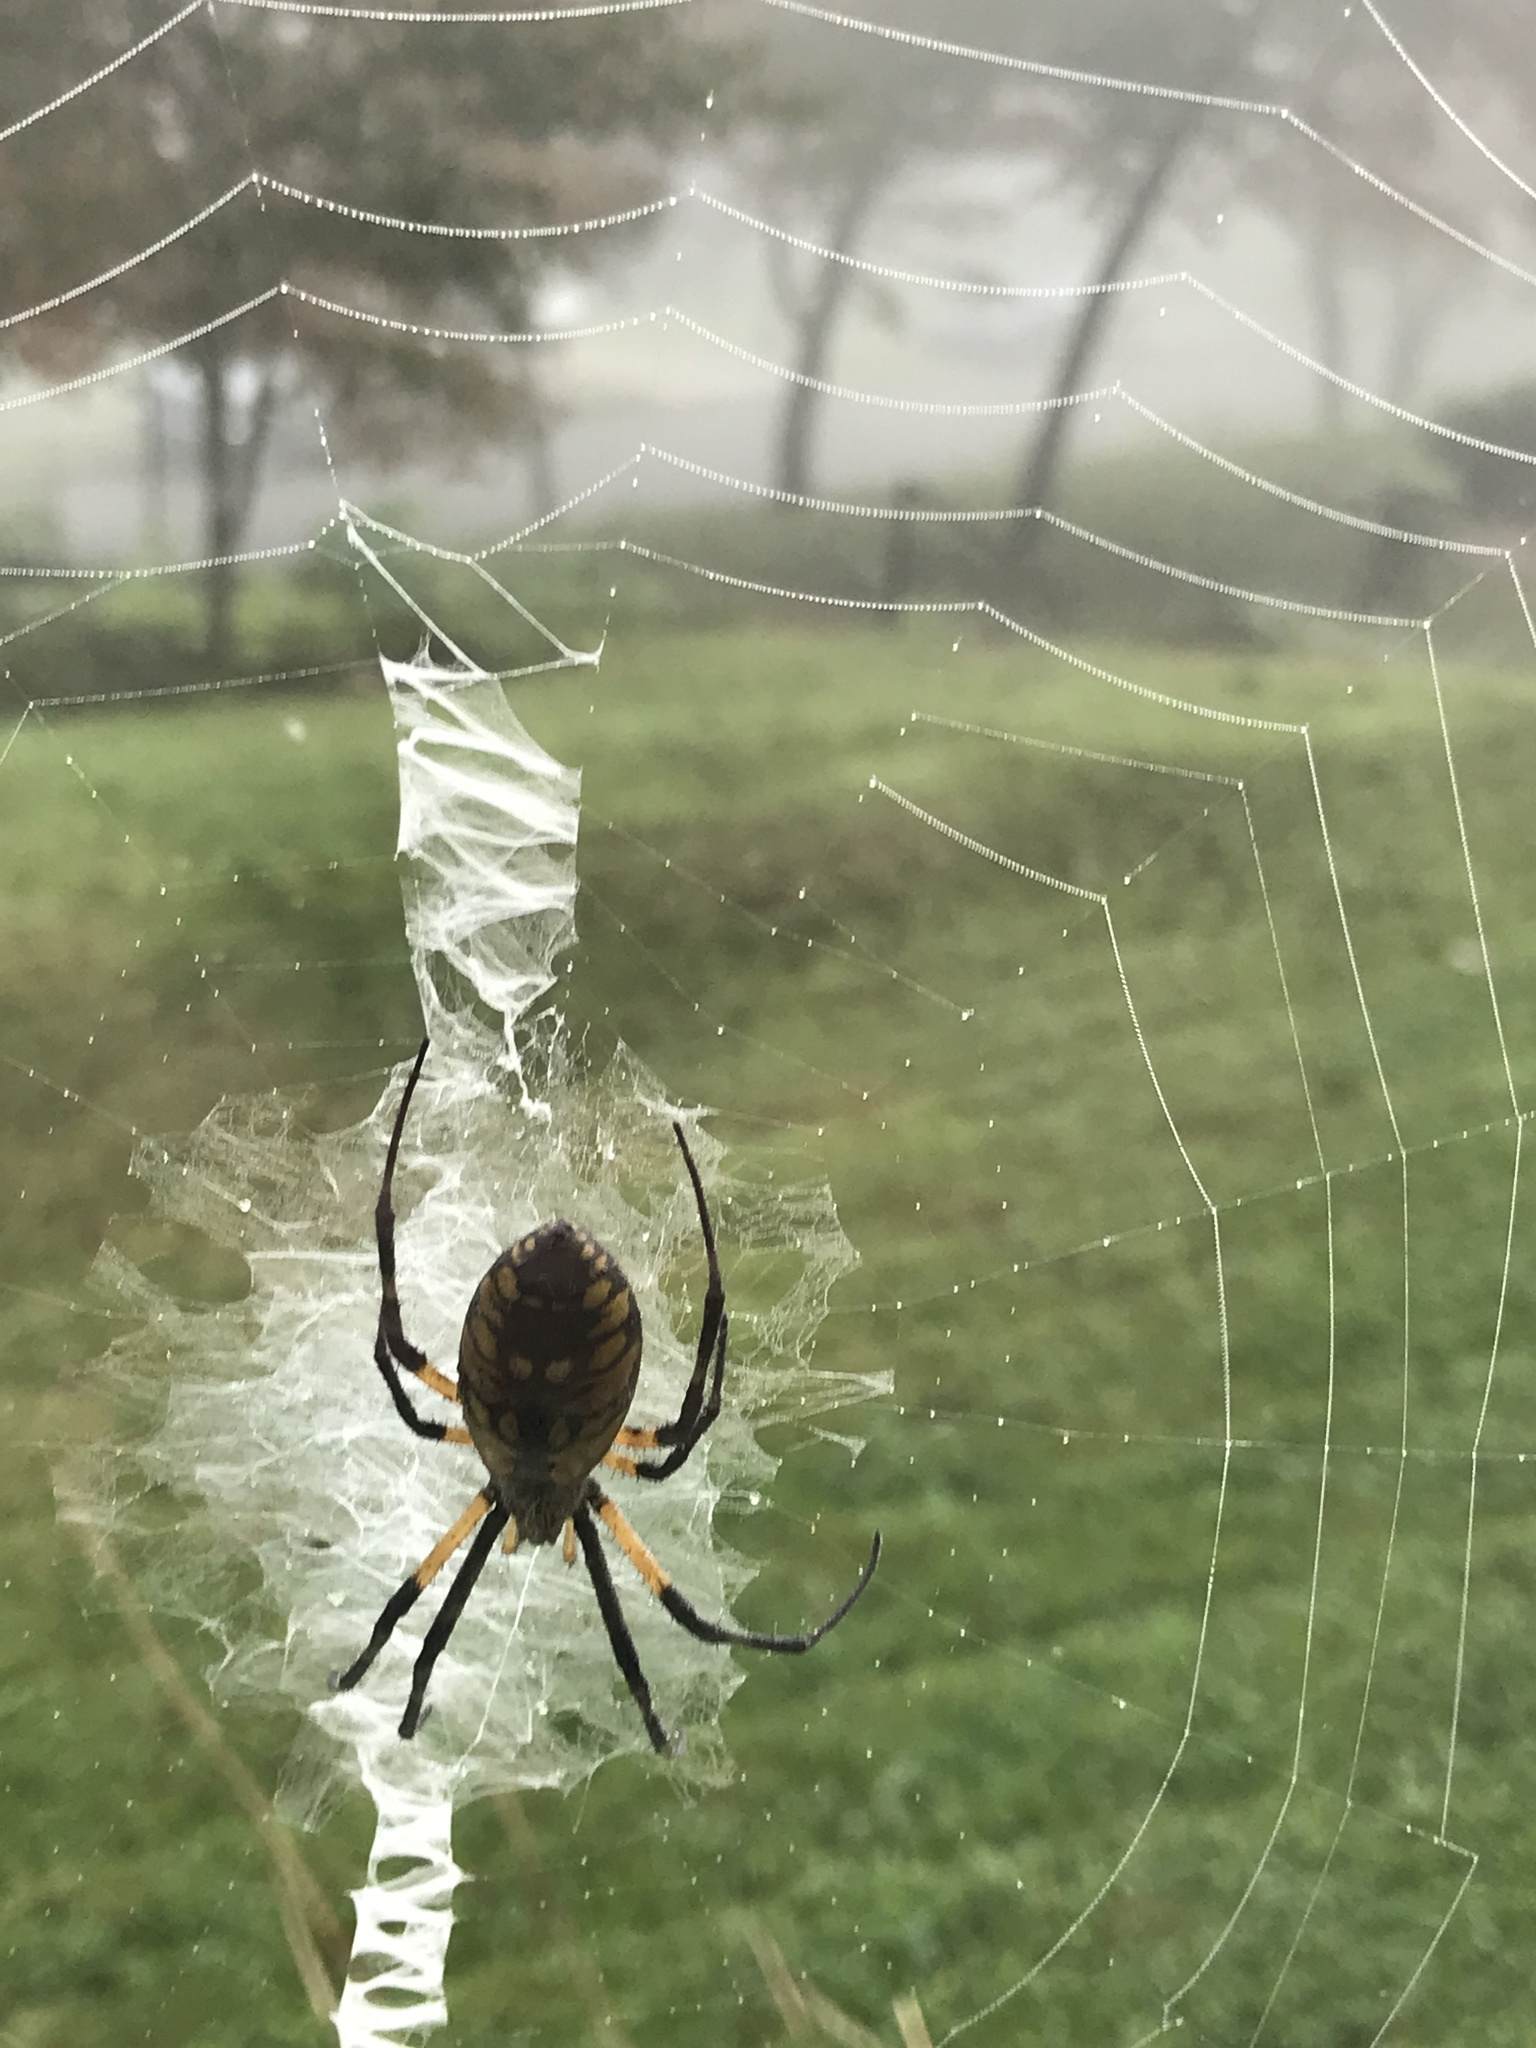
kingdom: Animalia
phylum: Arthropoda
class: Arachnida
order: Araneae
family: Araneidae
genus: Argiope
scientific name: Argiope aurantia
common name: Orb weavers
